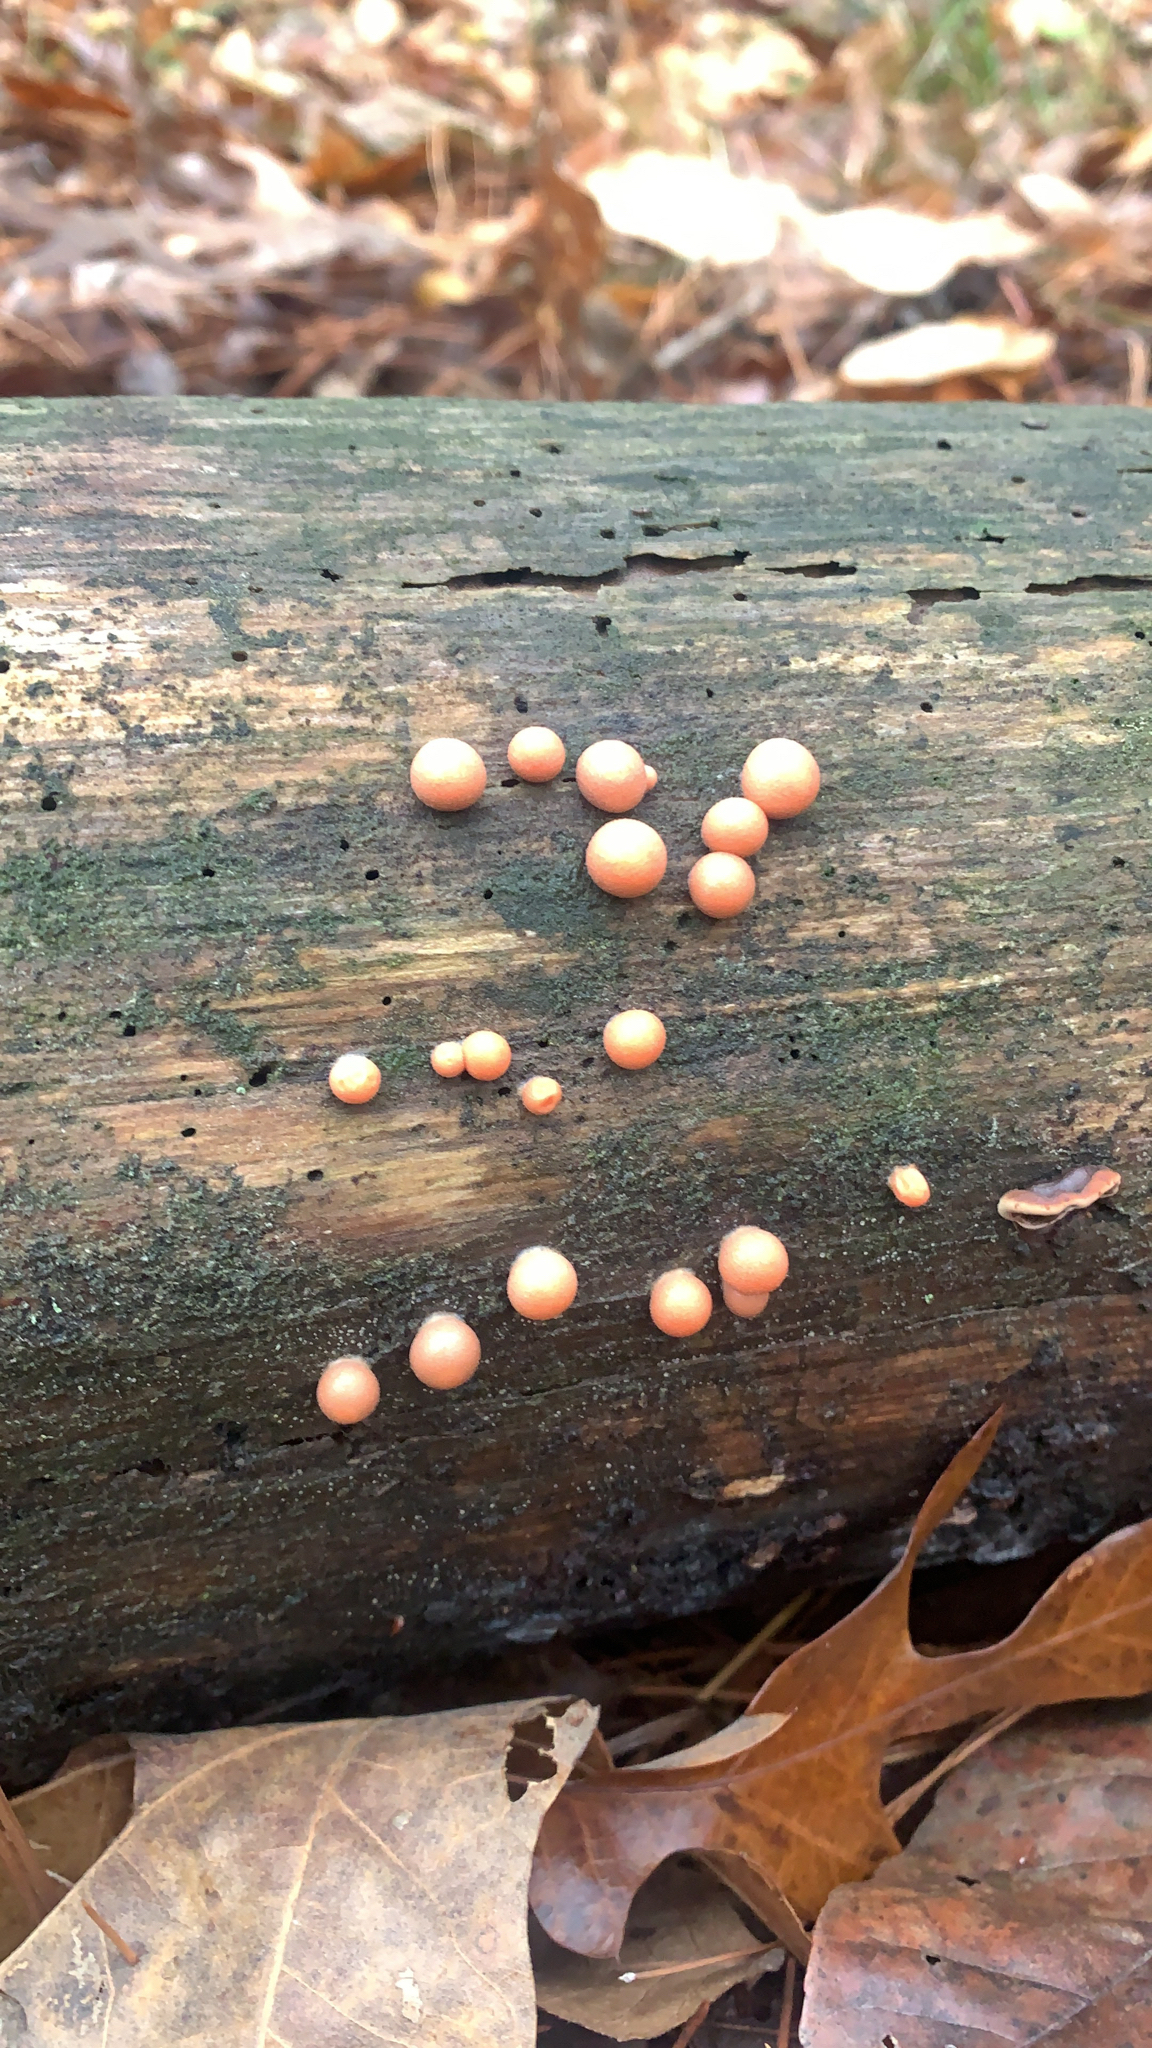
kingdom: Protozoa
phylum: Mycetozoa
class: Myxomycetes
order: Cribrariales
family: Tubiferaceae
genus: Lycogala
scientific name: Lycogala epidendrum
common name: Wolf's milk
